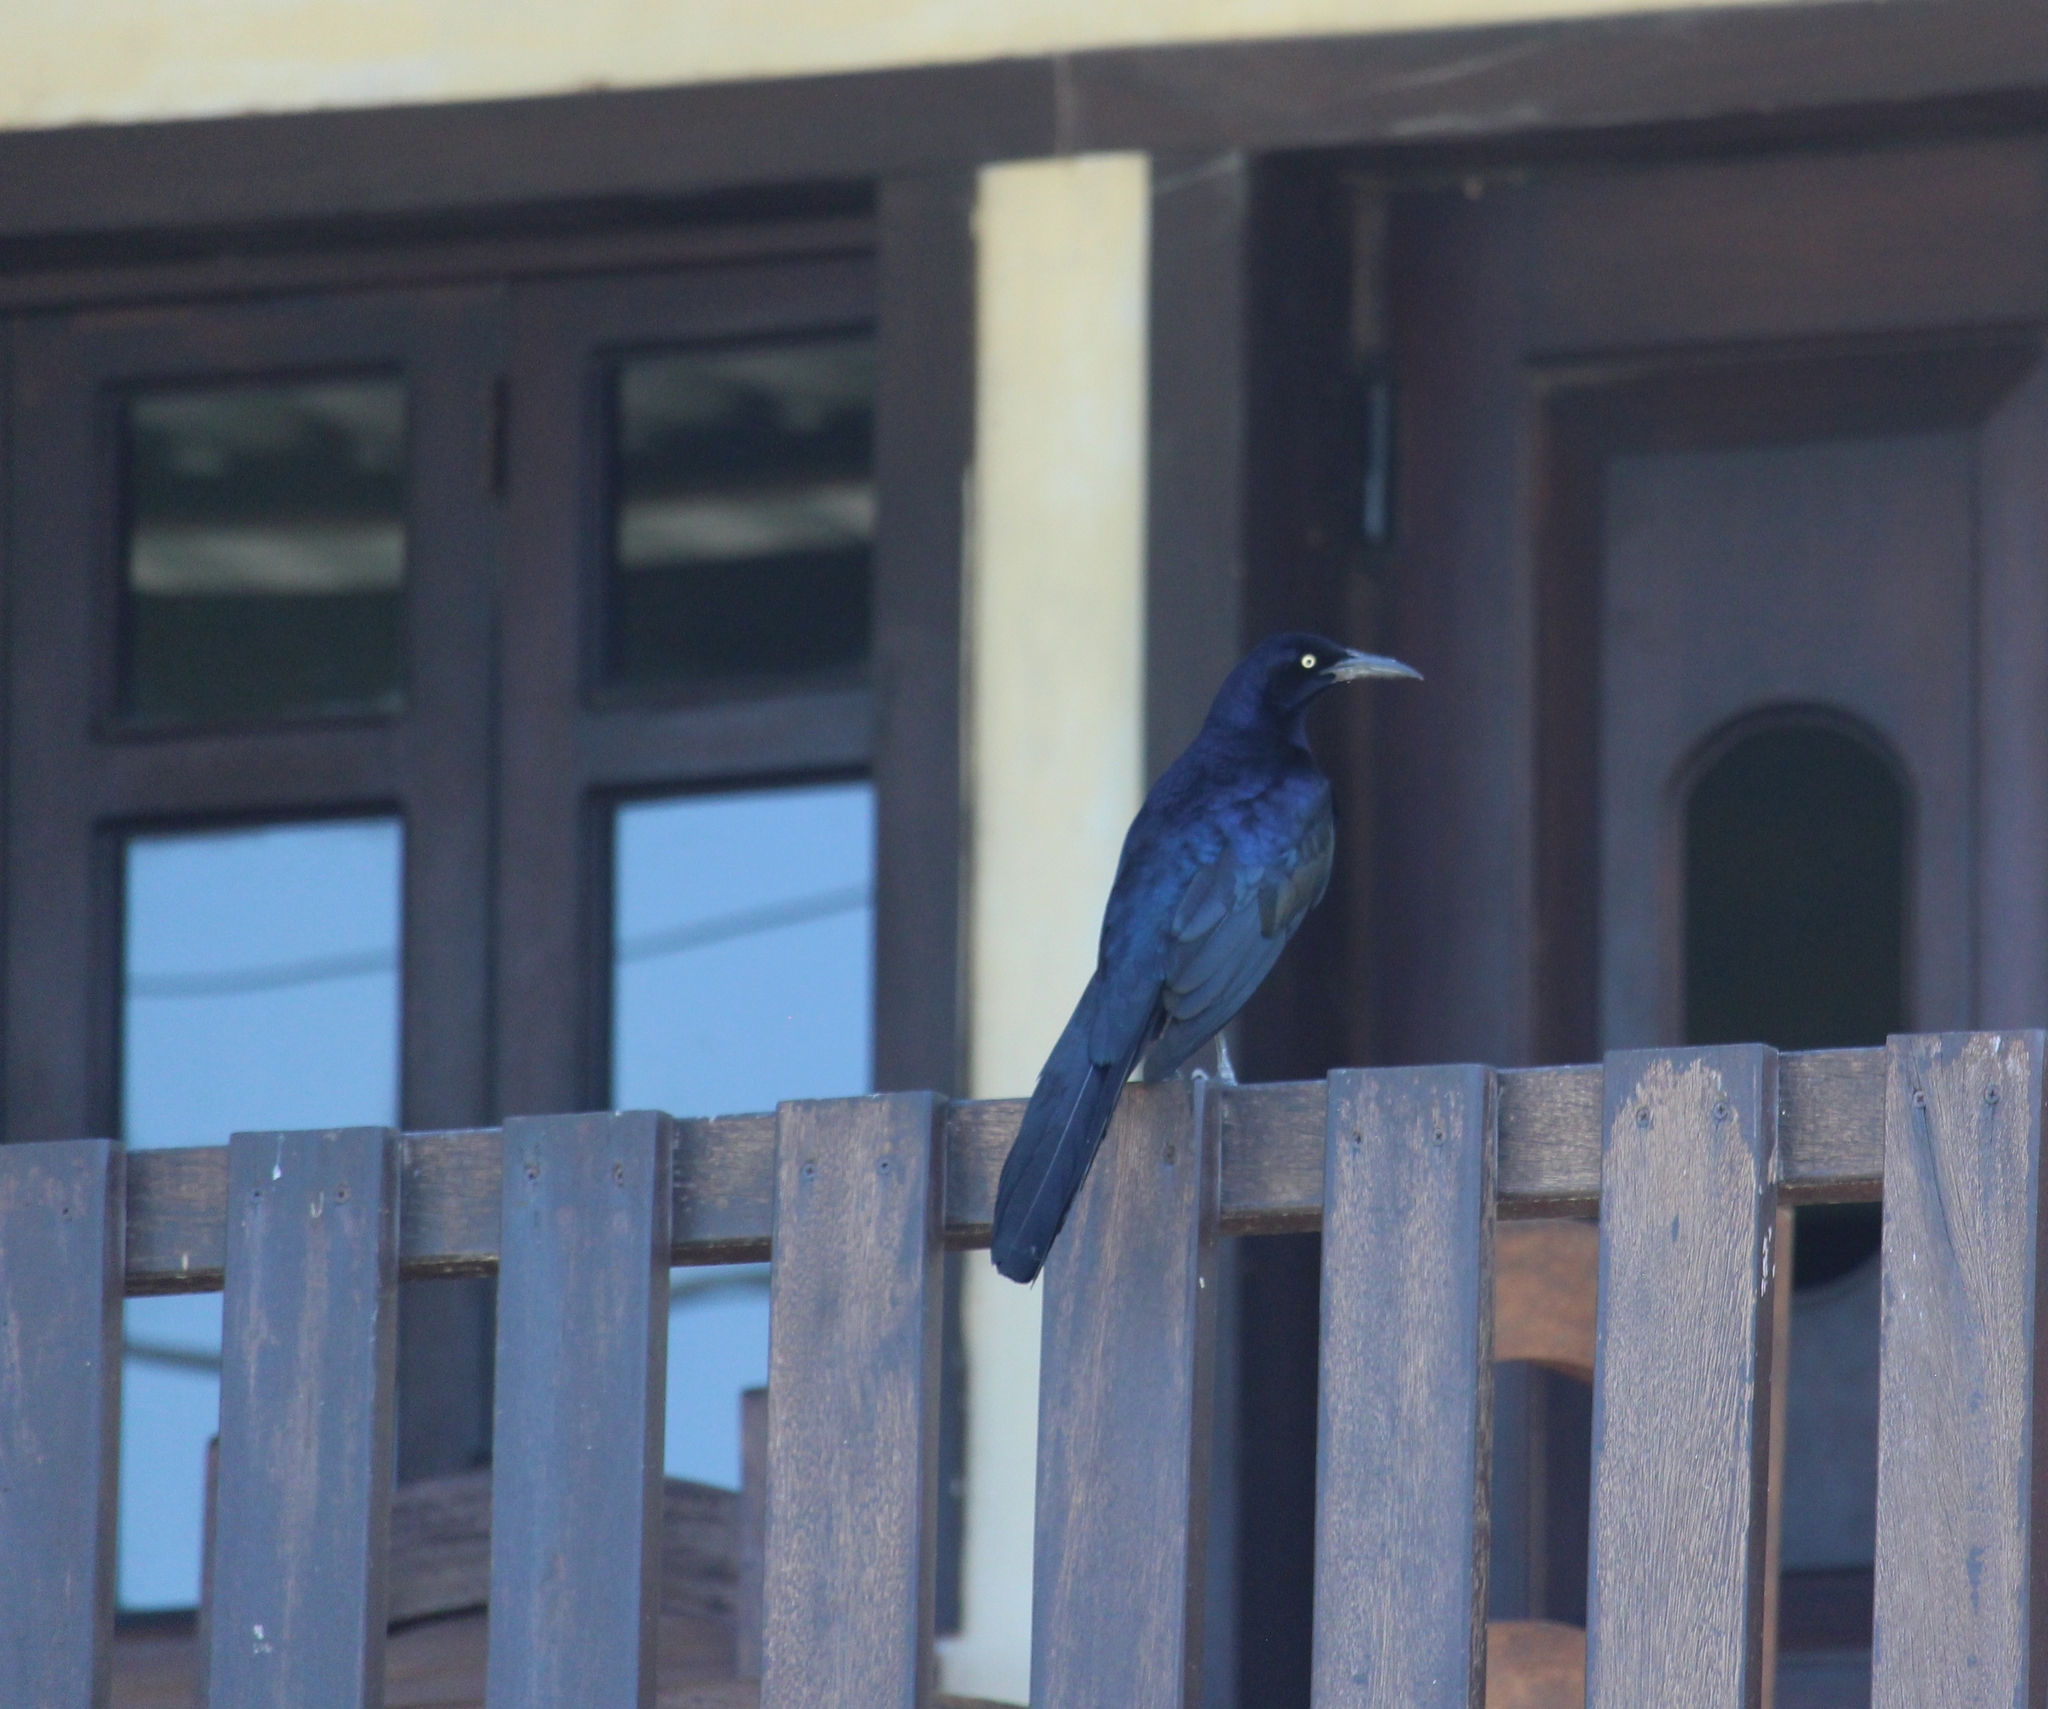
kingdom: Animalia
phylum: Chordata
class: Aves
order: Passeriformes
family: Icteridae
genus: Quiscalus
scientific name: Quiscalus mexicanus
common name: Great-tailed grackle
